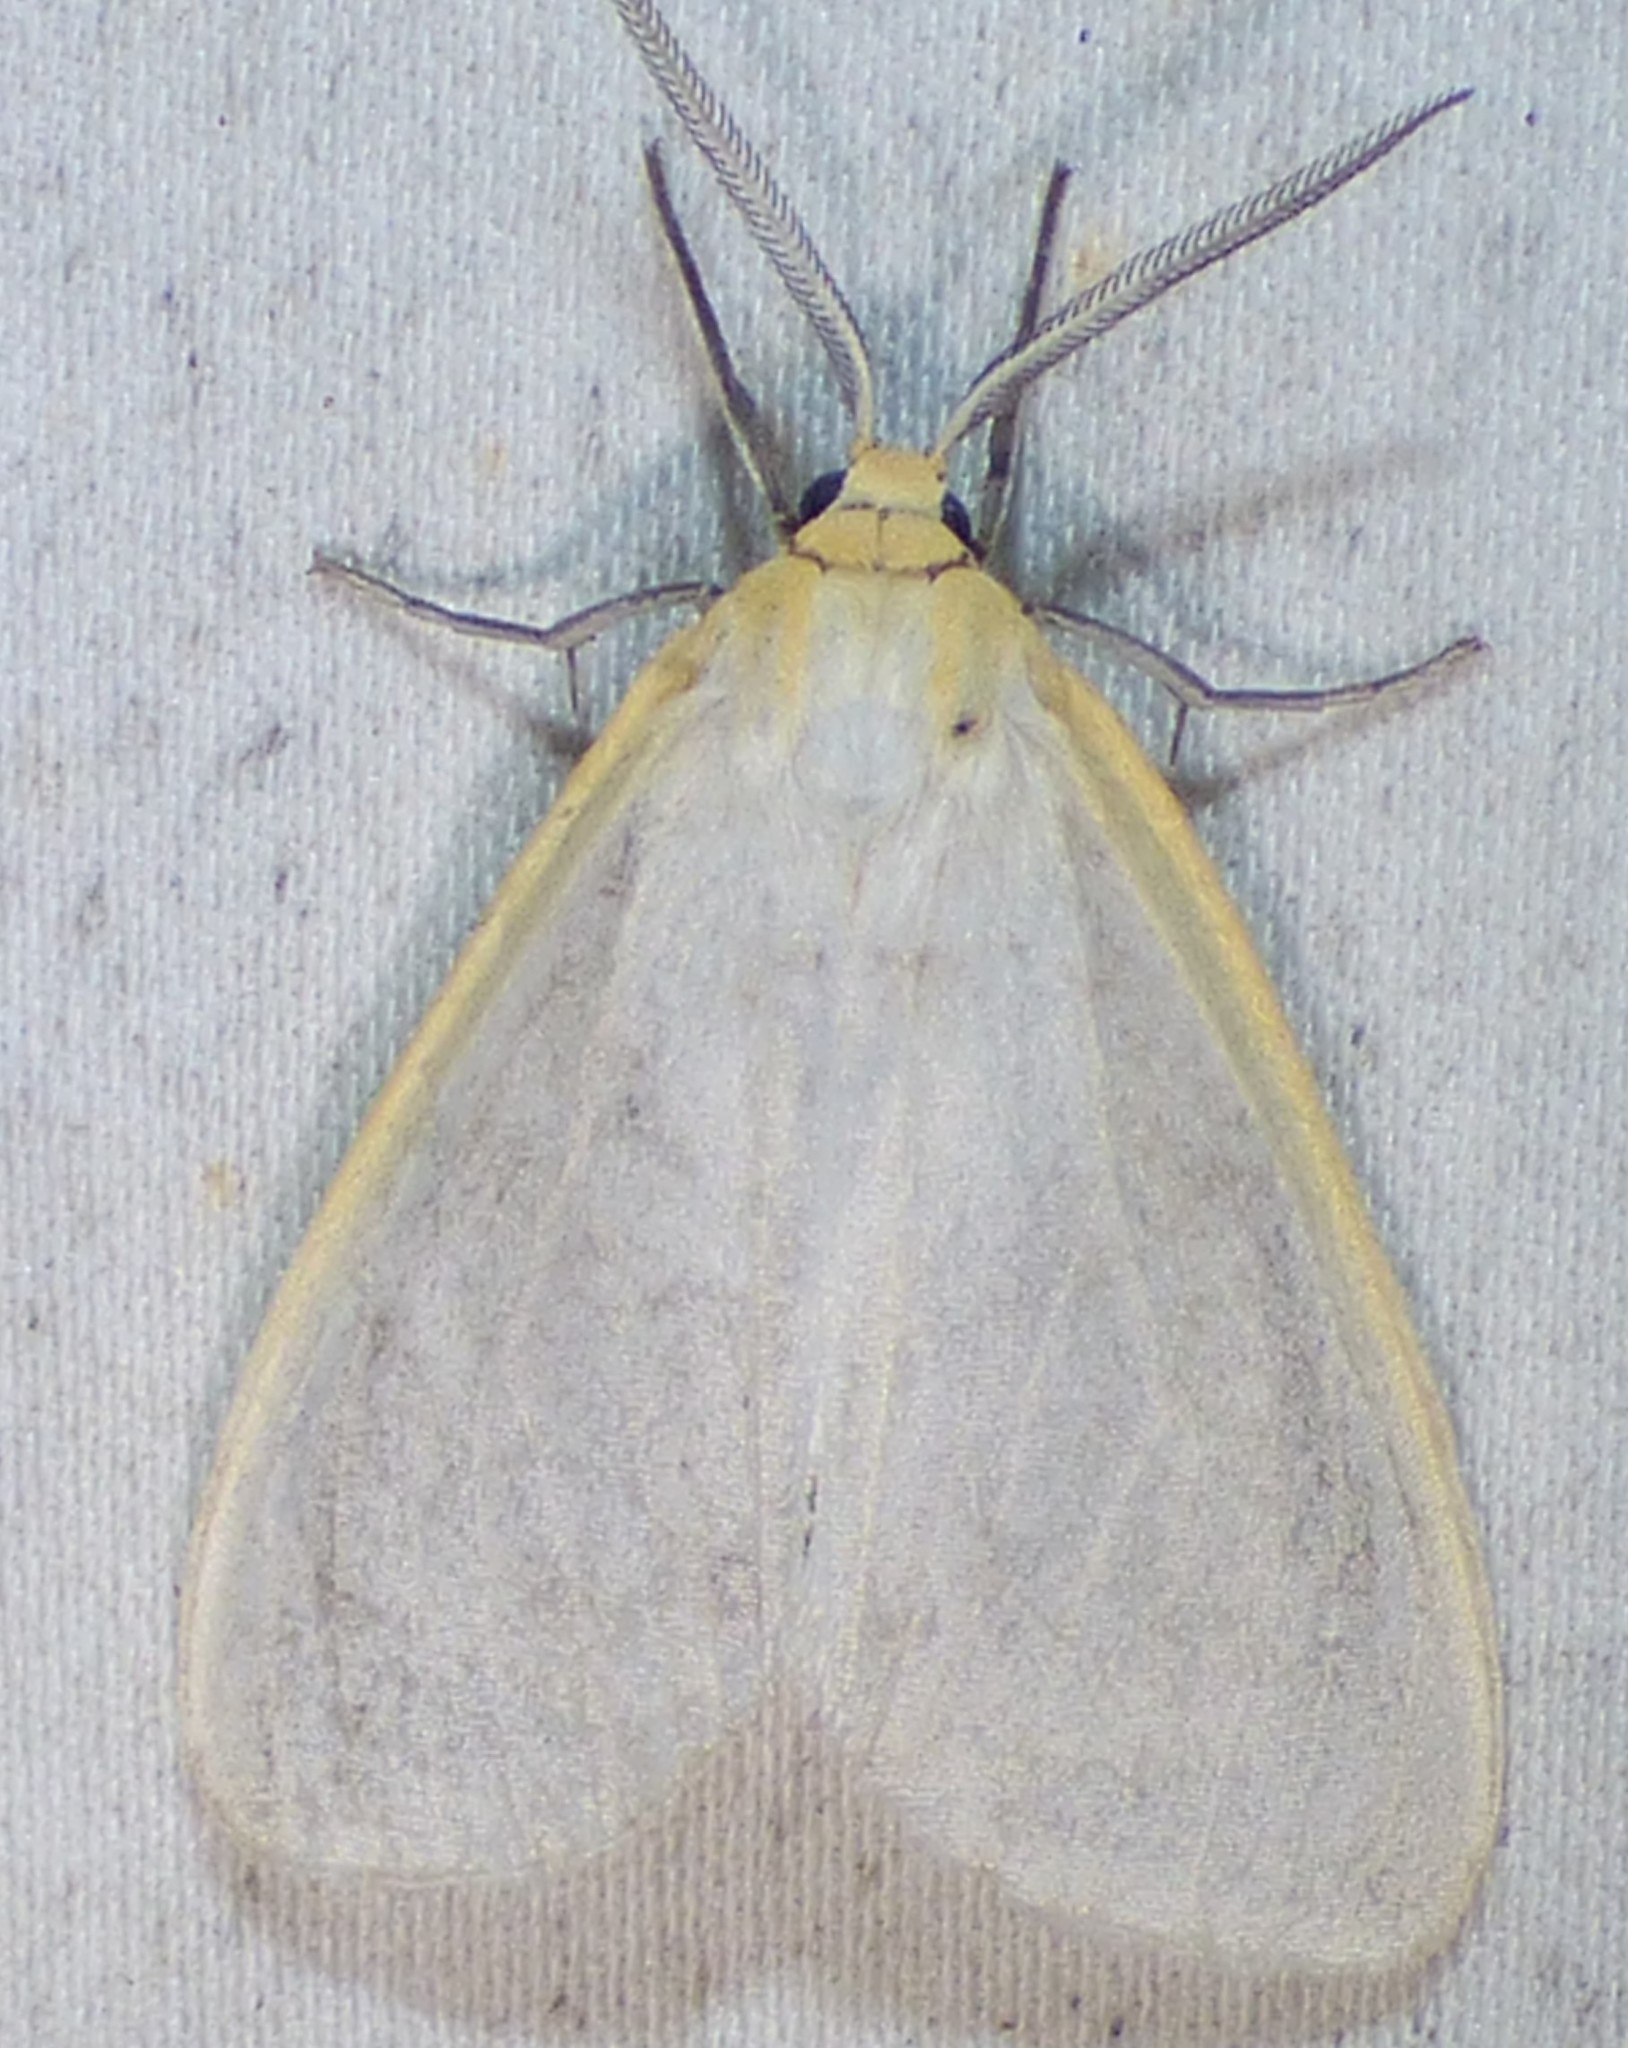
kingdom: Animalia
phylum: Arthropoda
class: Insecta
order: Lepidoptera
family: Erebidae
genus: Cycnia
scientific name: Cycnia tenera
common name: Delicate cycnia moth
